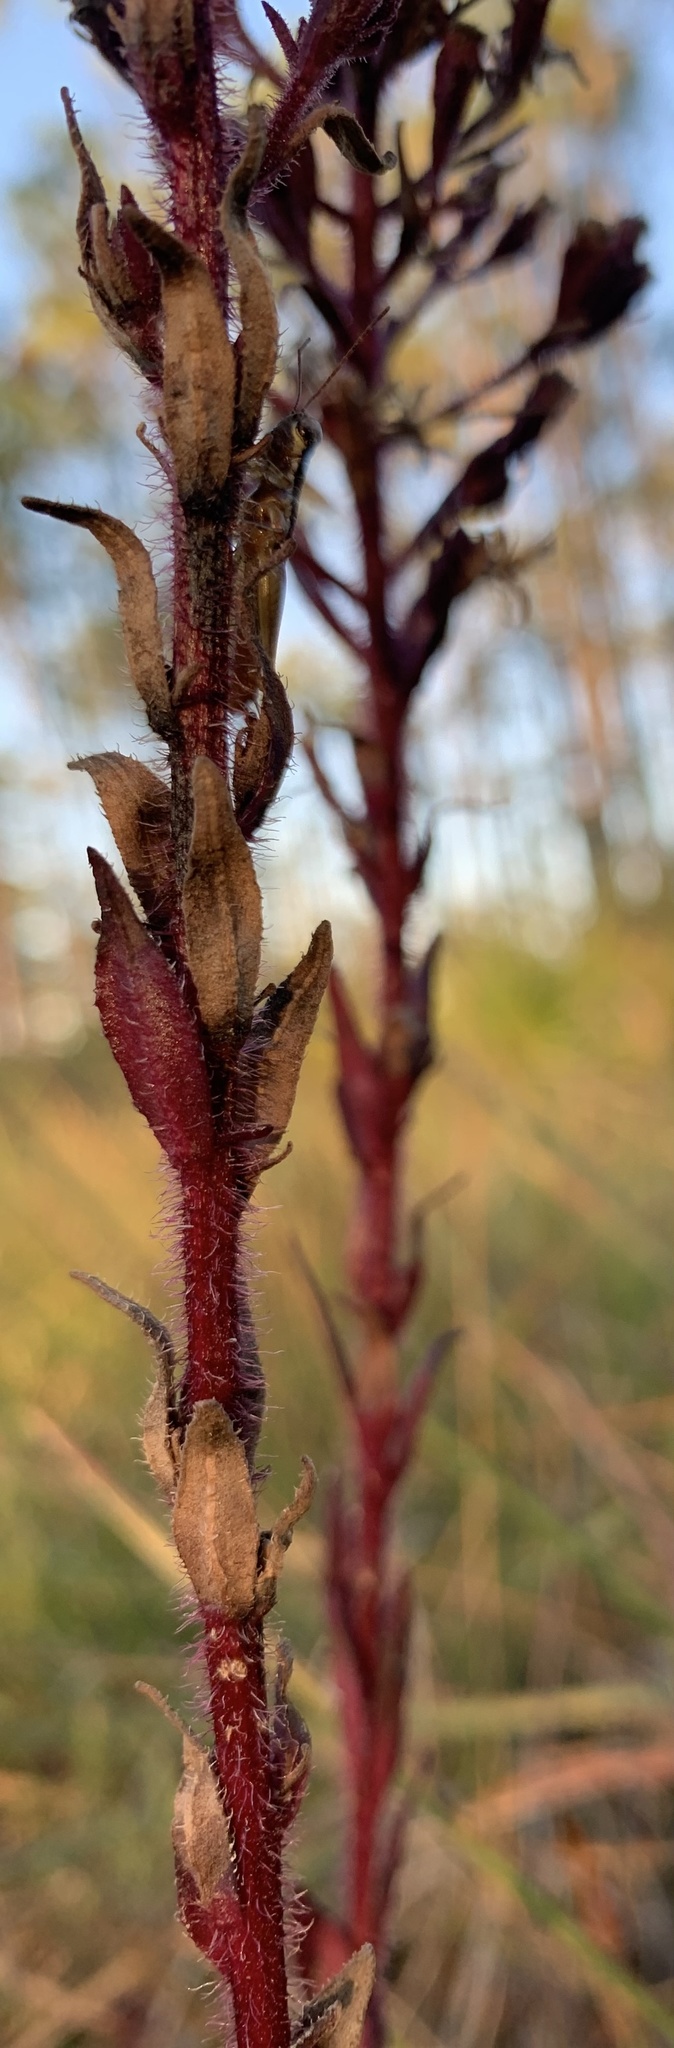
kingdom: Plantae
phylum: Tracheophyta
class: Magnoliopsida
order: Asterales
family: Asteraceae
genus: Carphephorus
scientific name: Carphephorus paniculatus
